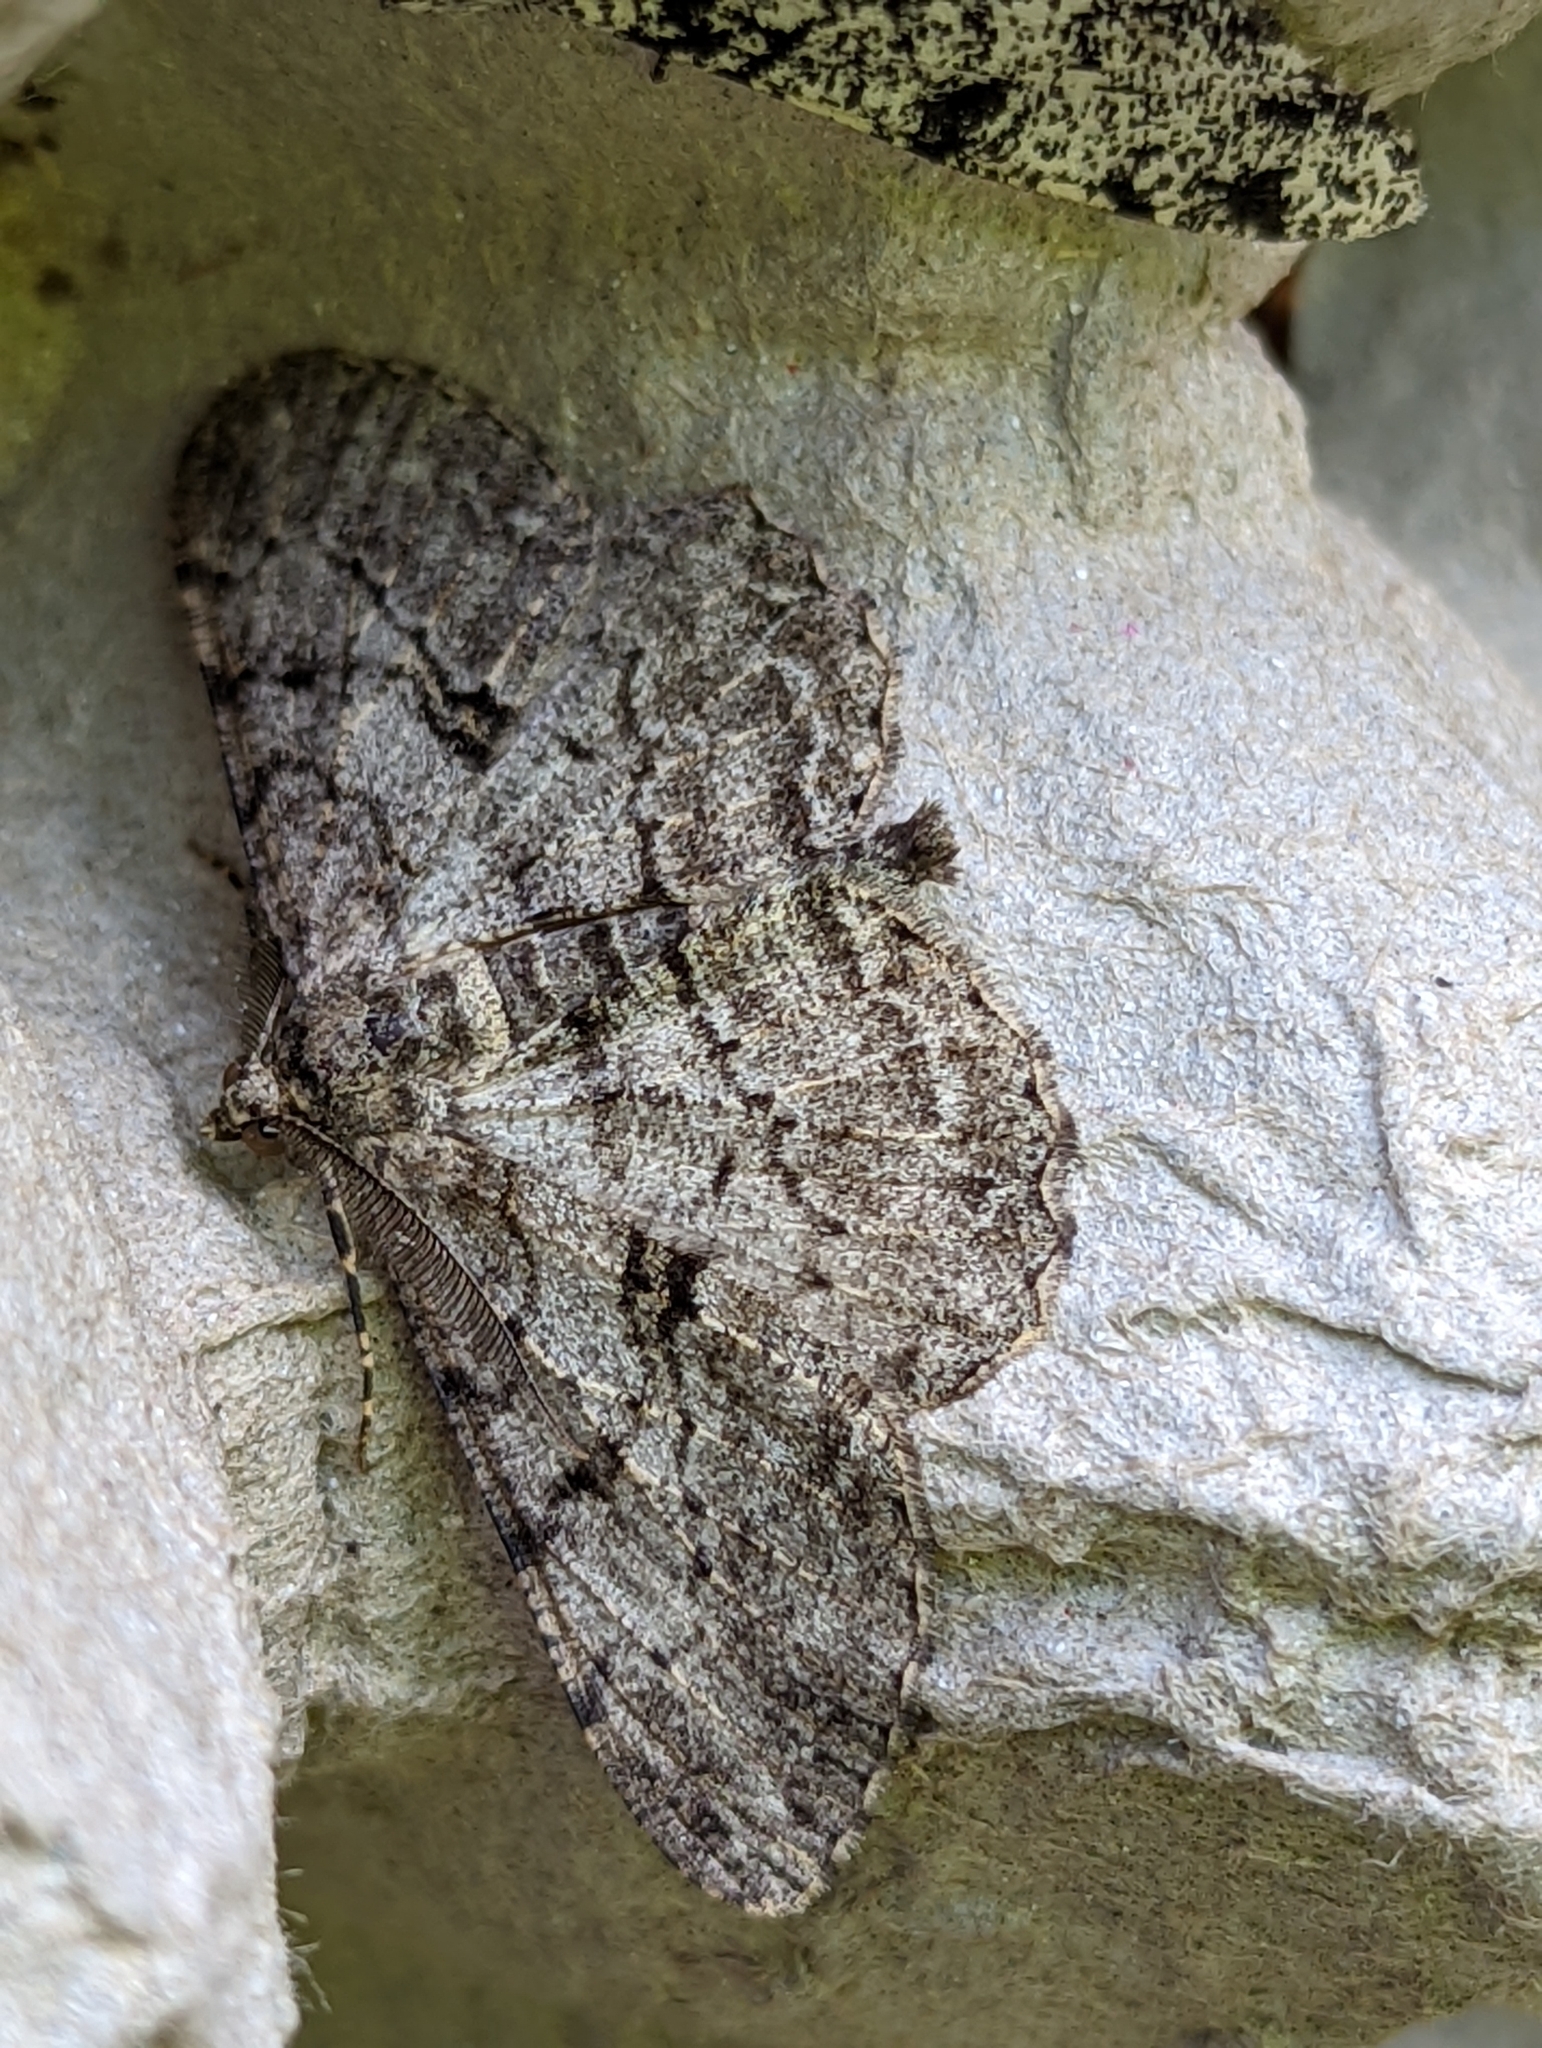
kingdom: Animalia
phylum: Arthropoda
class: Insecta
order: Lepidoptera
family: Geometridae
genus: Peribatodes
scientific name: Peribatodes rhomboidaria
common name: Willow beauty
